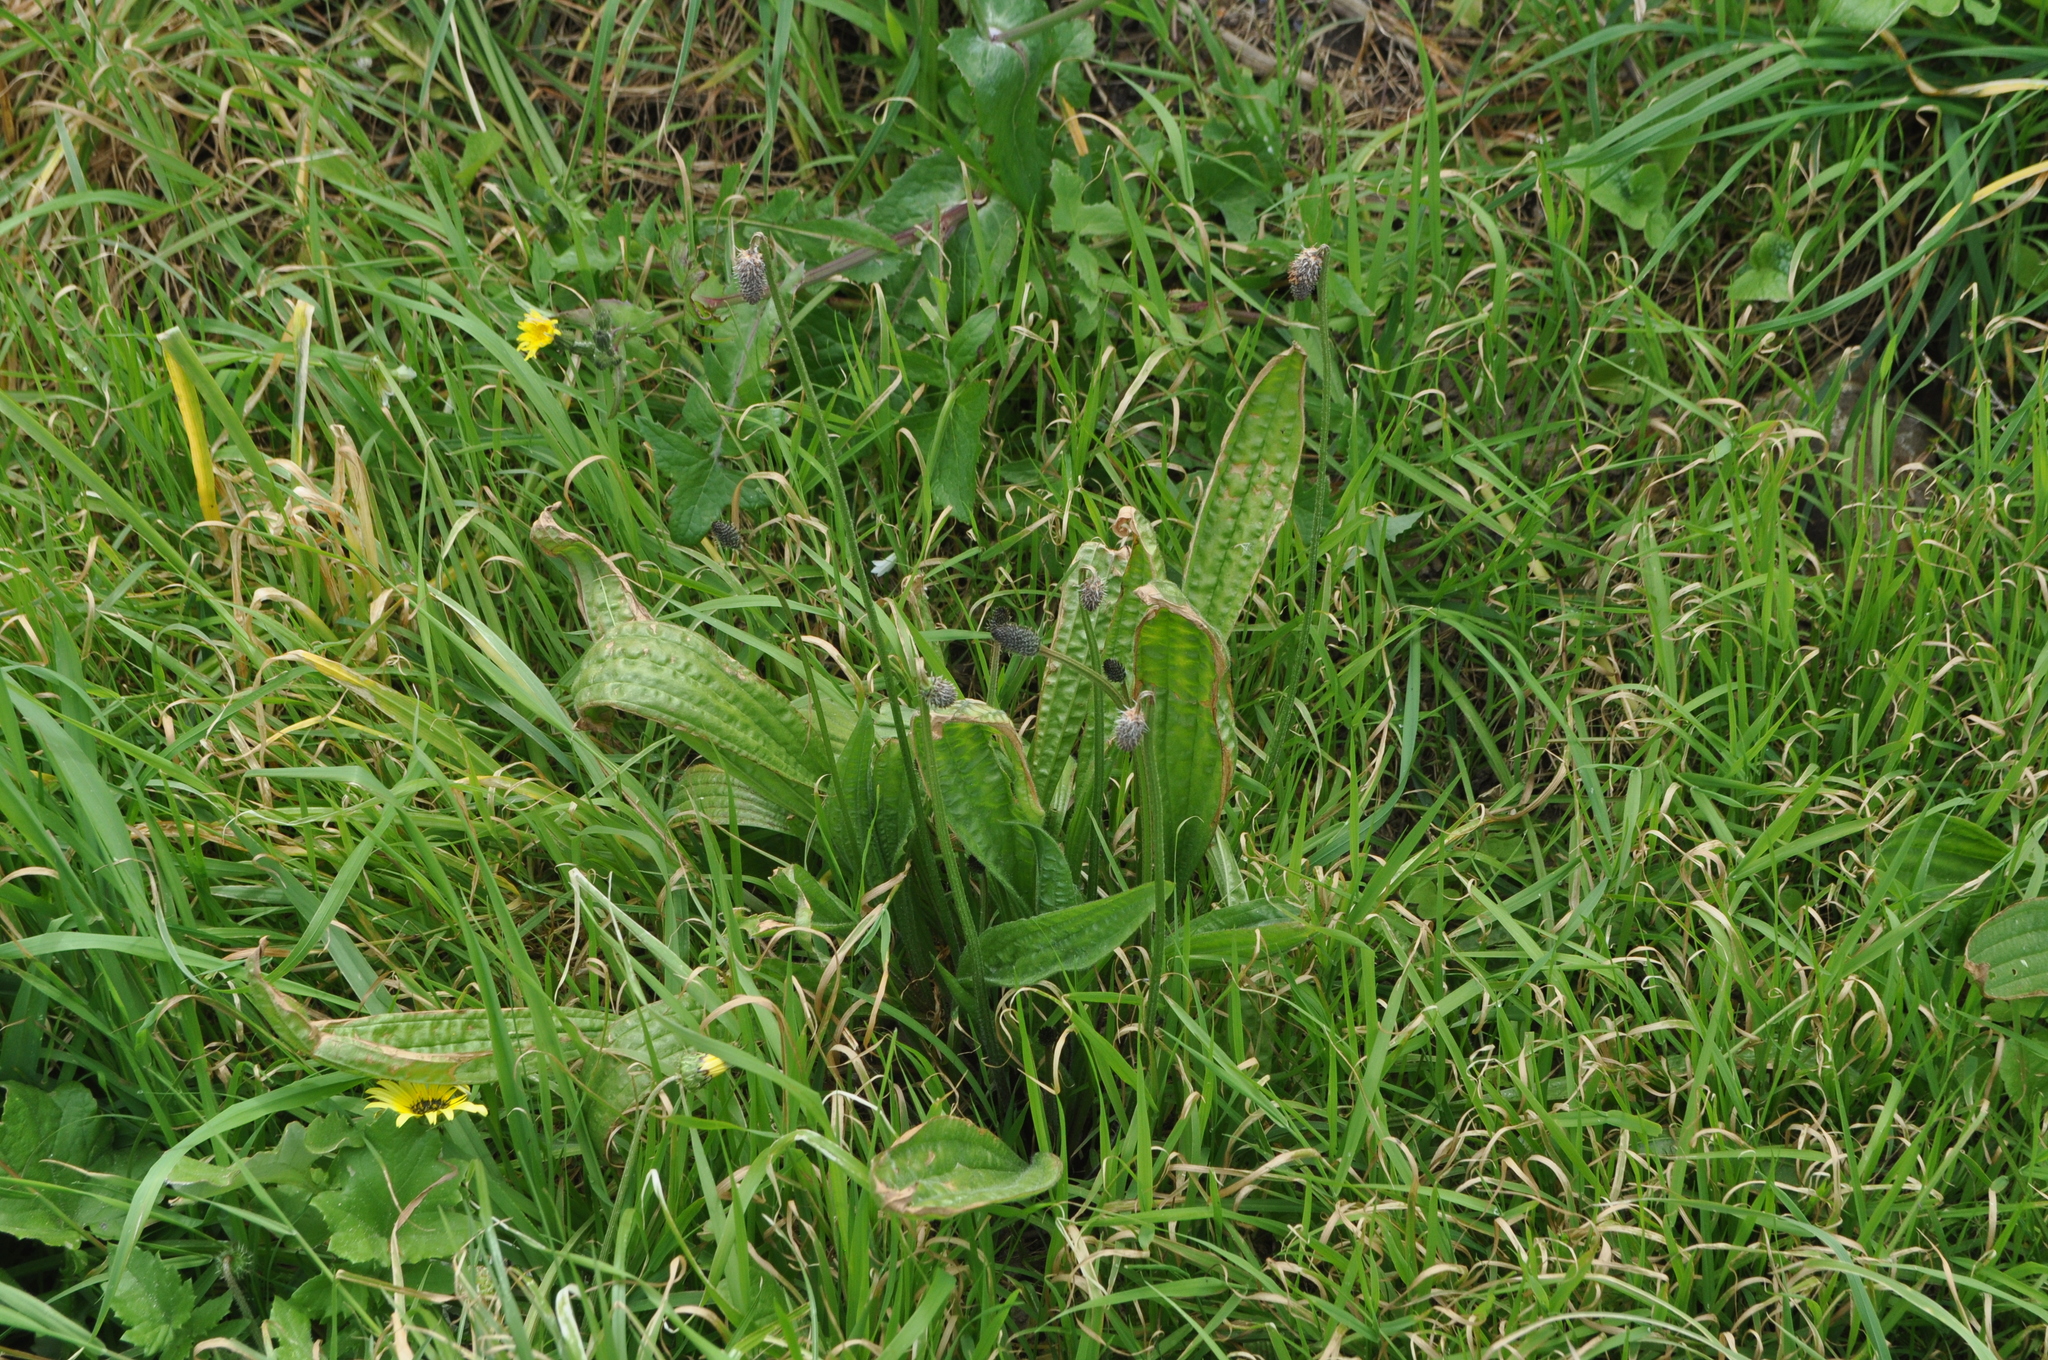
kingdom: Plantae
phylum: Tracheophyta
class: Magnoliopsida
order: Lamiales
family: Plantaginaceae
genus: Plantago
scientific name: Plantago lanceolata
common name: Ribwort plantain
